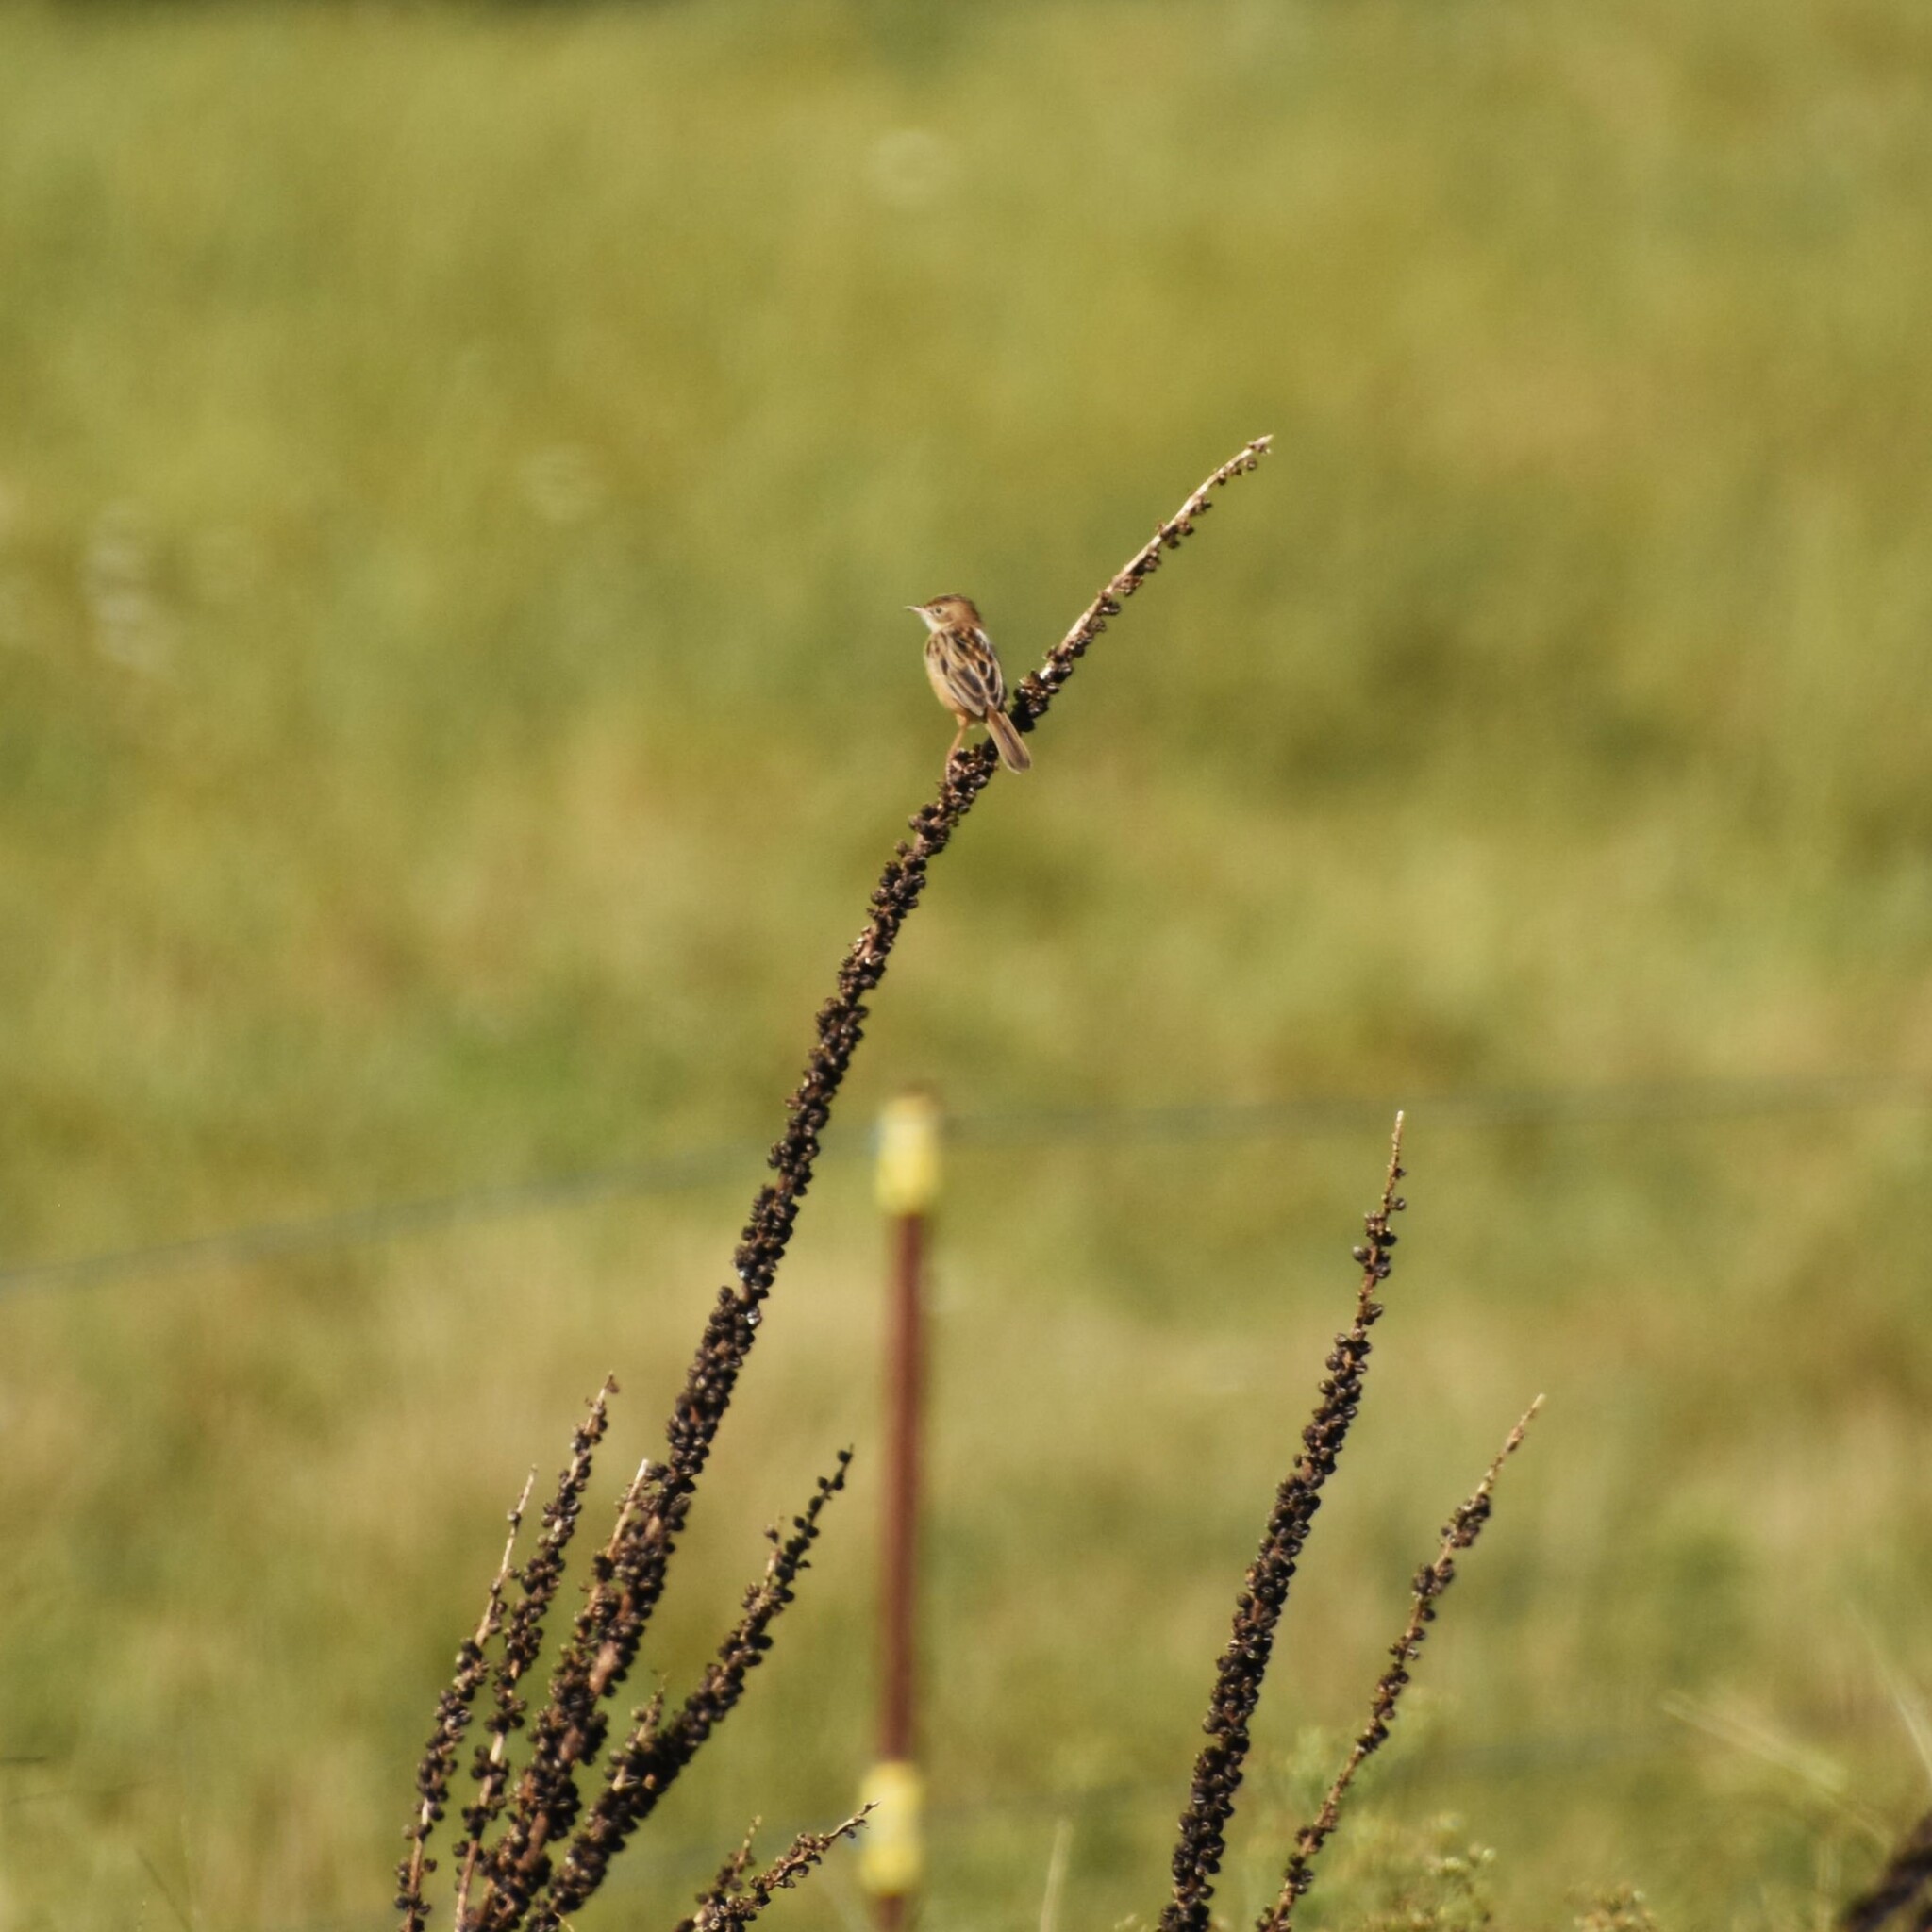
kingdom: Animalia
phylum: Chordata
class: Aves
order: Passeriformes
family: Cisticolidae
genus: Cisticola
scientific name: Cisticola juncidis
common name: Zitting cisticola
